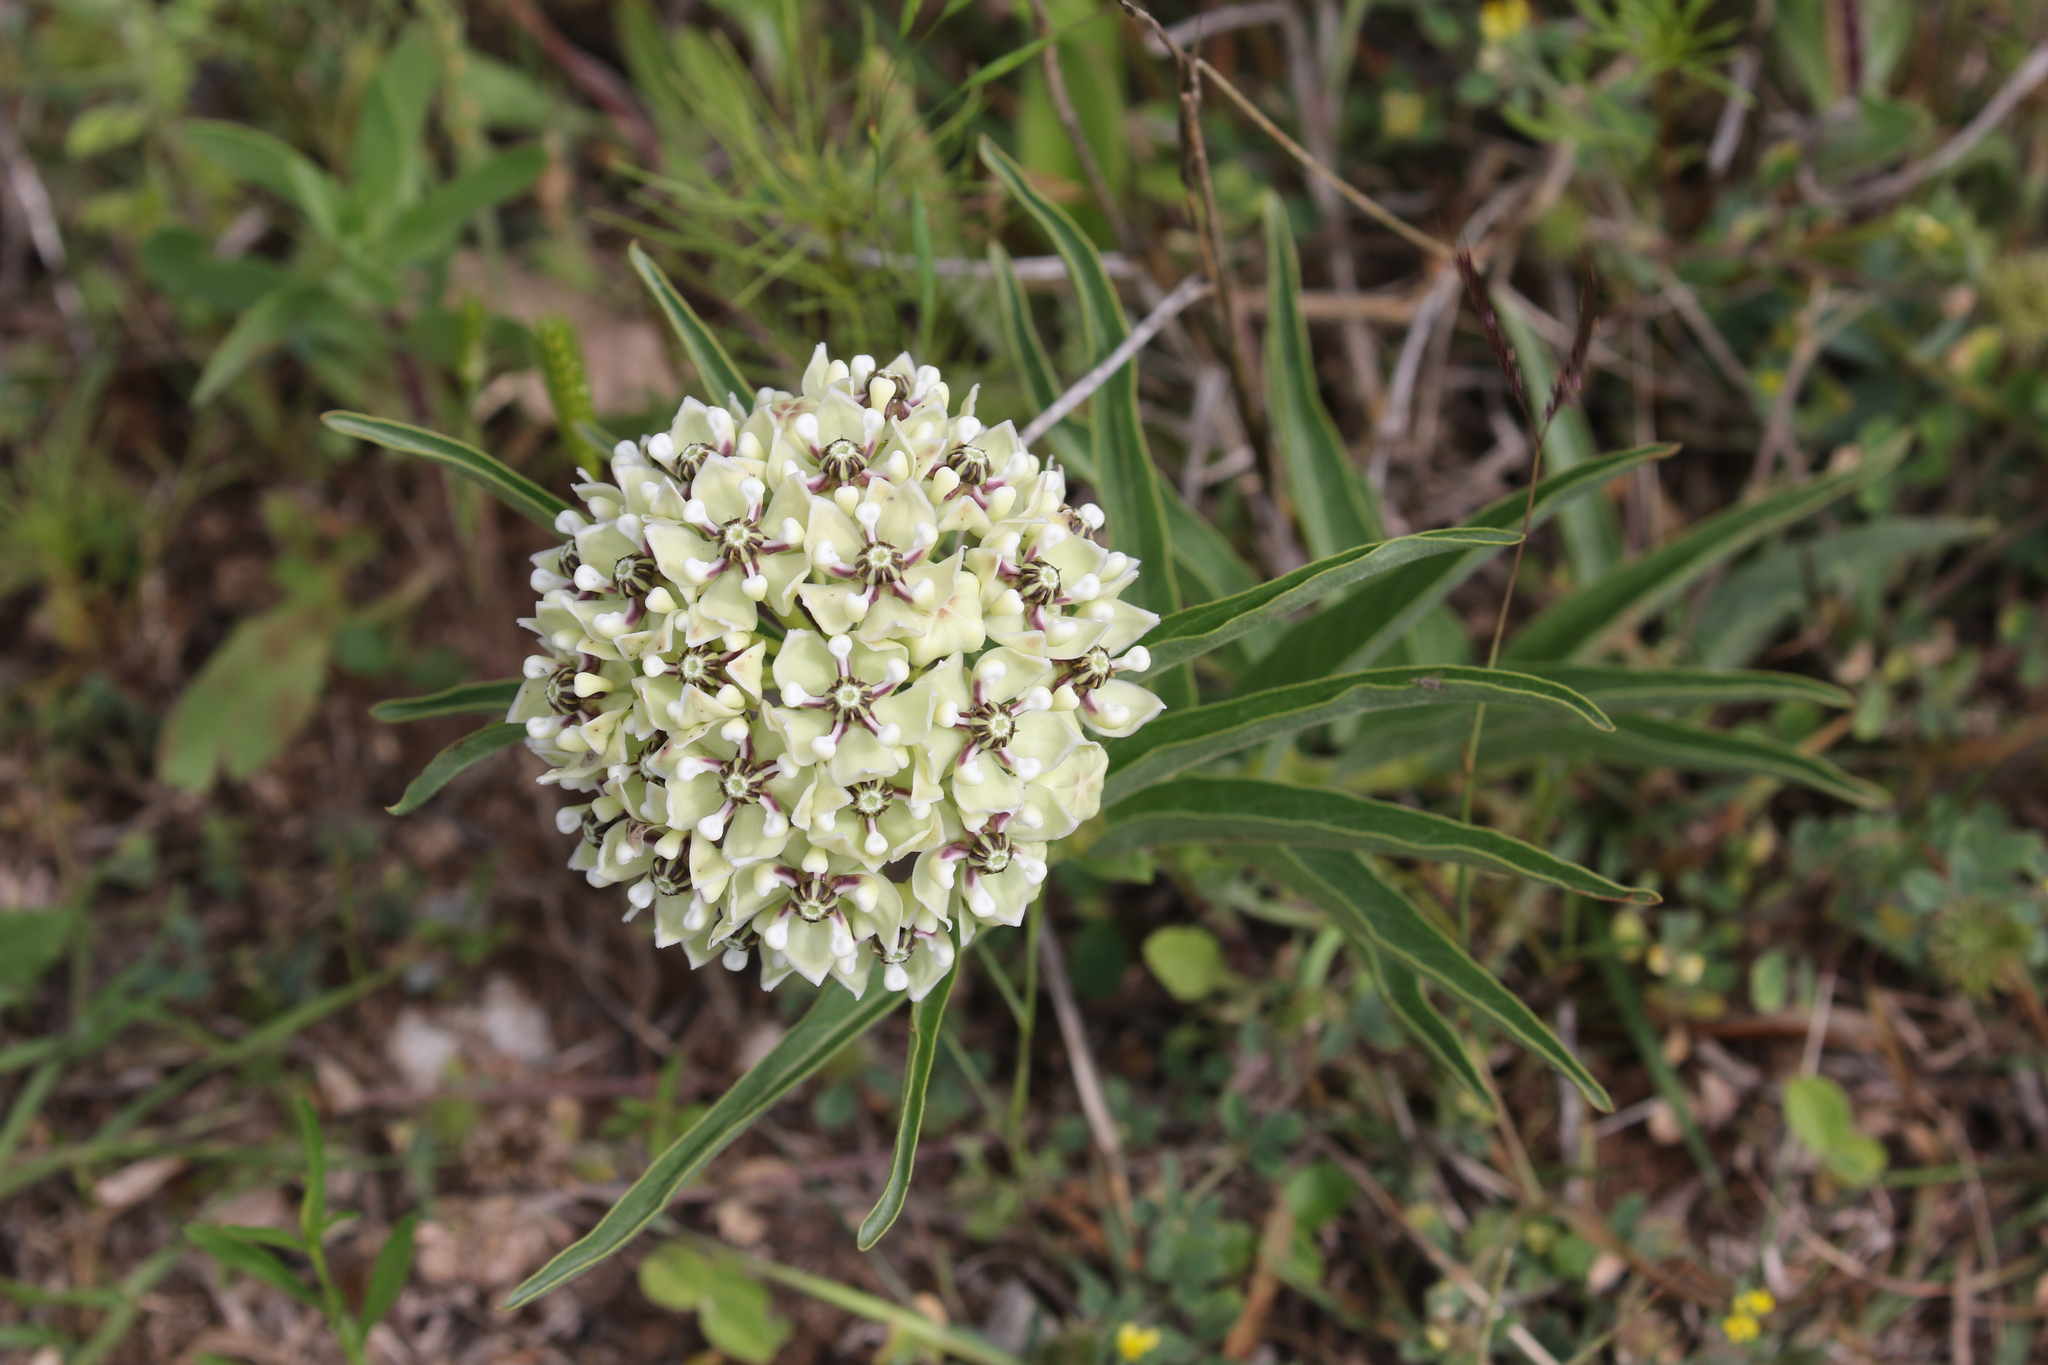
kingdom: Plantae
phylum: Tracheophyta
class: Magnoliopsida
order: Gentianales
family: Apocynaceae
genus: Asclepias
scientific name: Asclepias asperula
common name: Antelope horns
